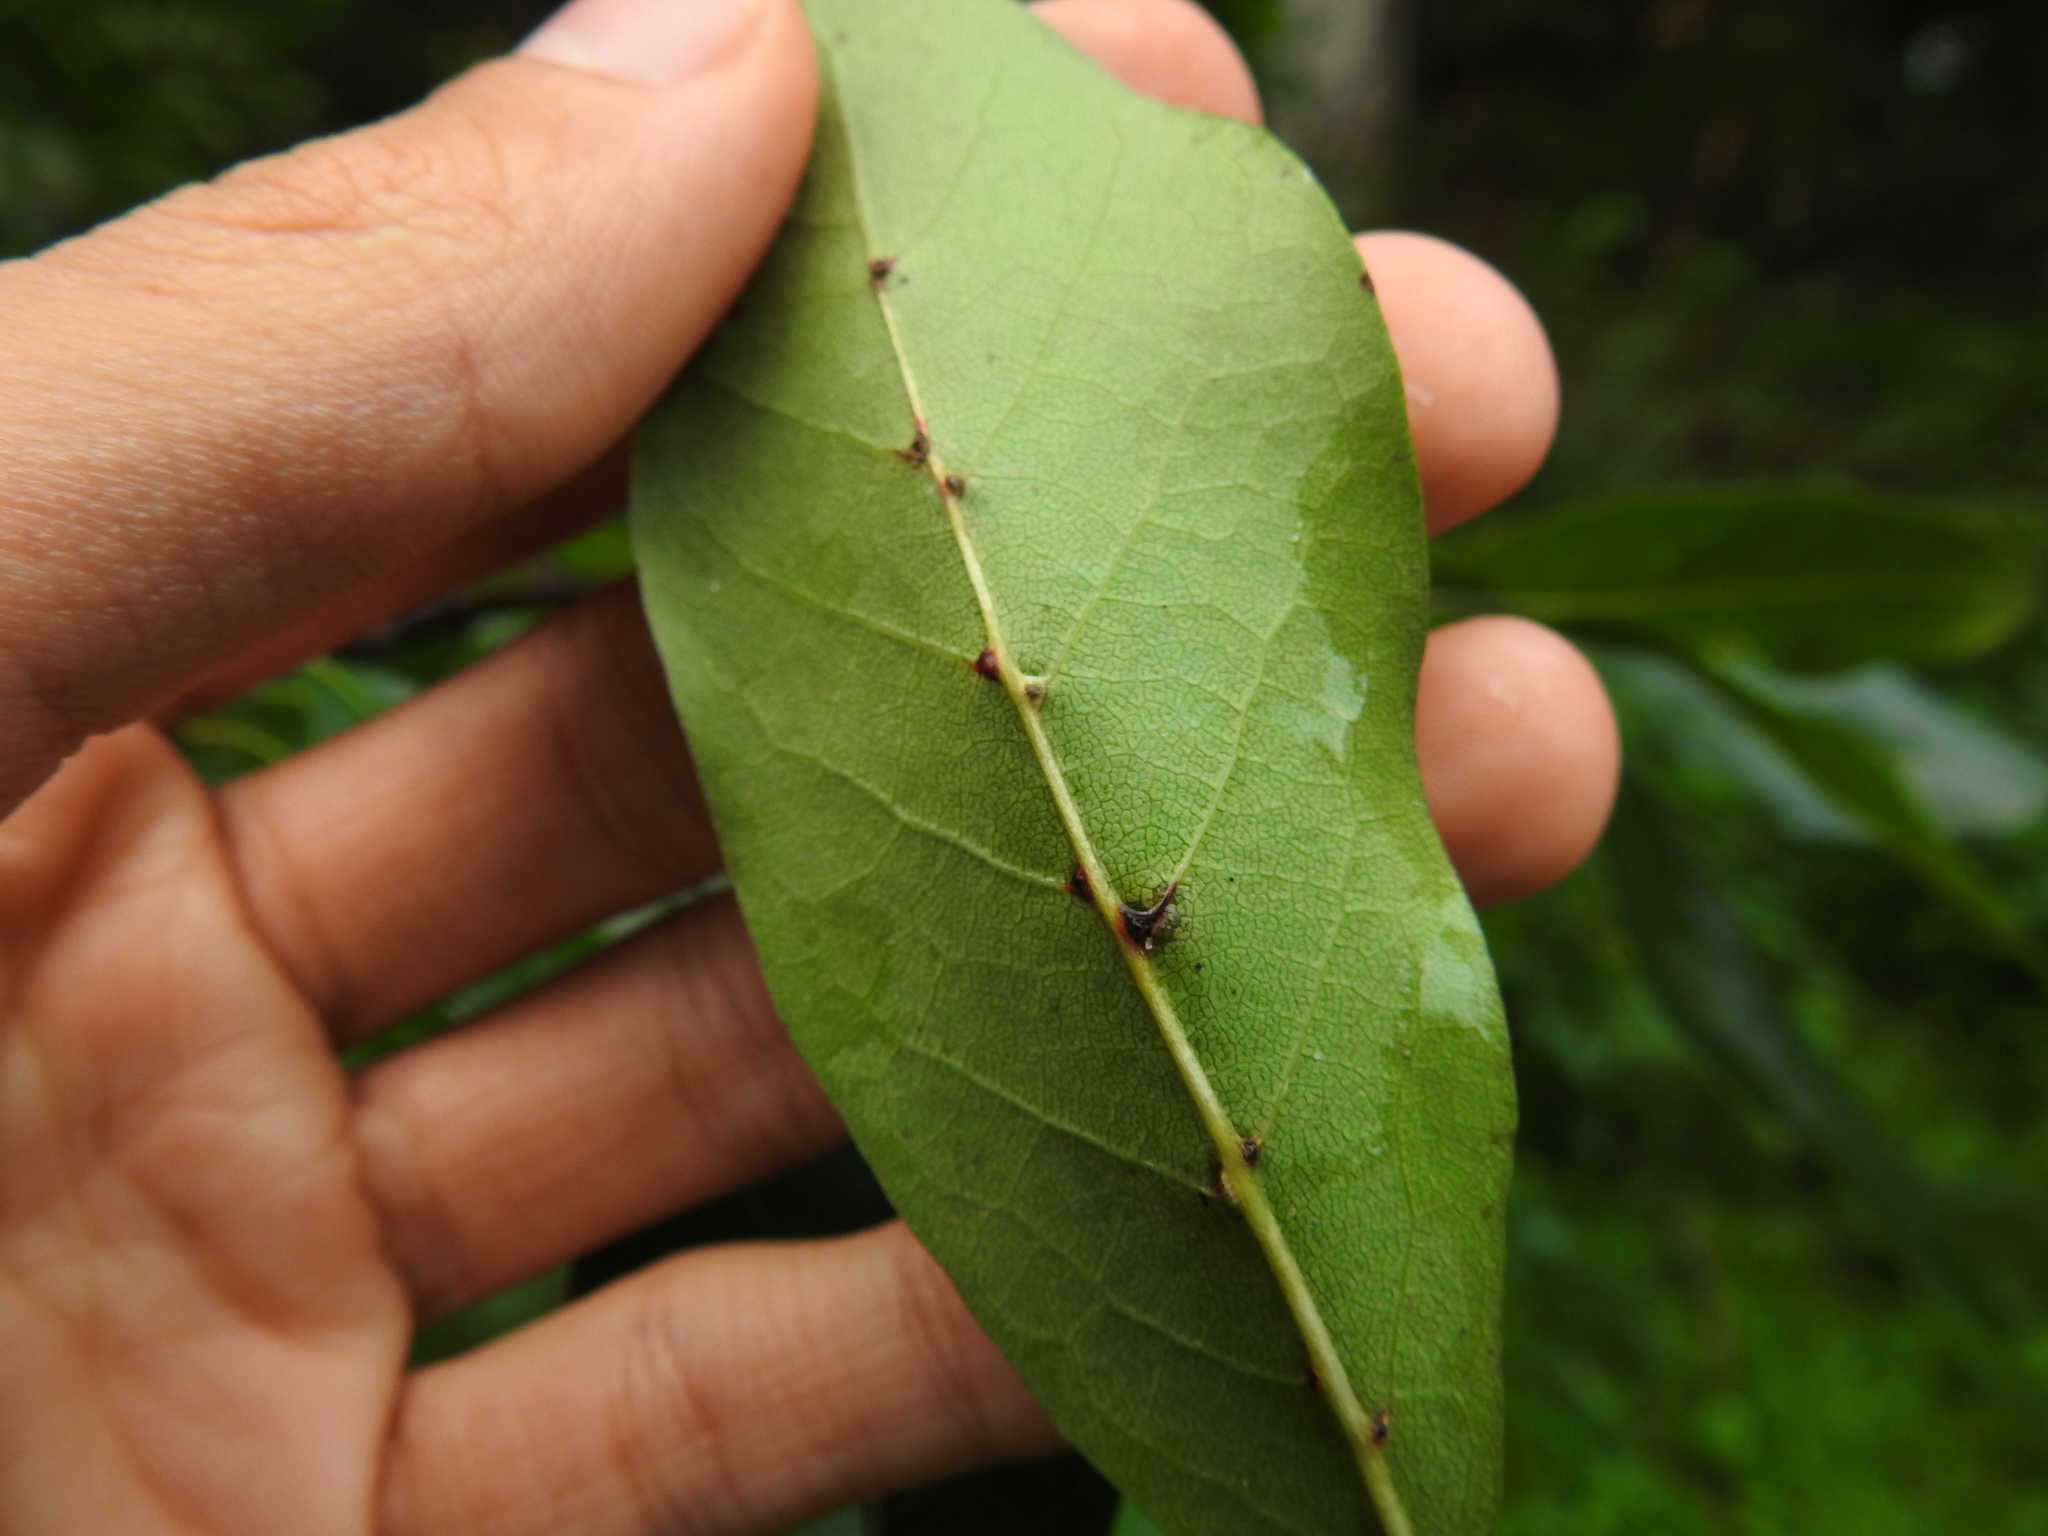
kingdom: Animalia
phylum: Arthropoda
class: Arachnida
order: Trombidiformes
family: Eriophyidae
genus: Cenalox
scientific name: Cenalox
